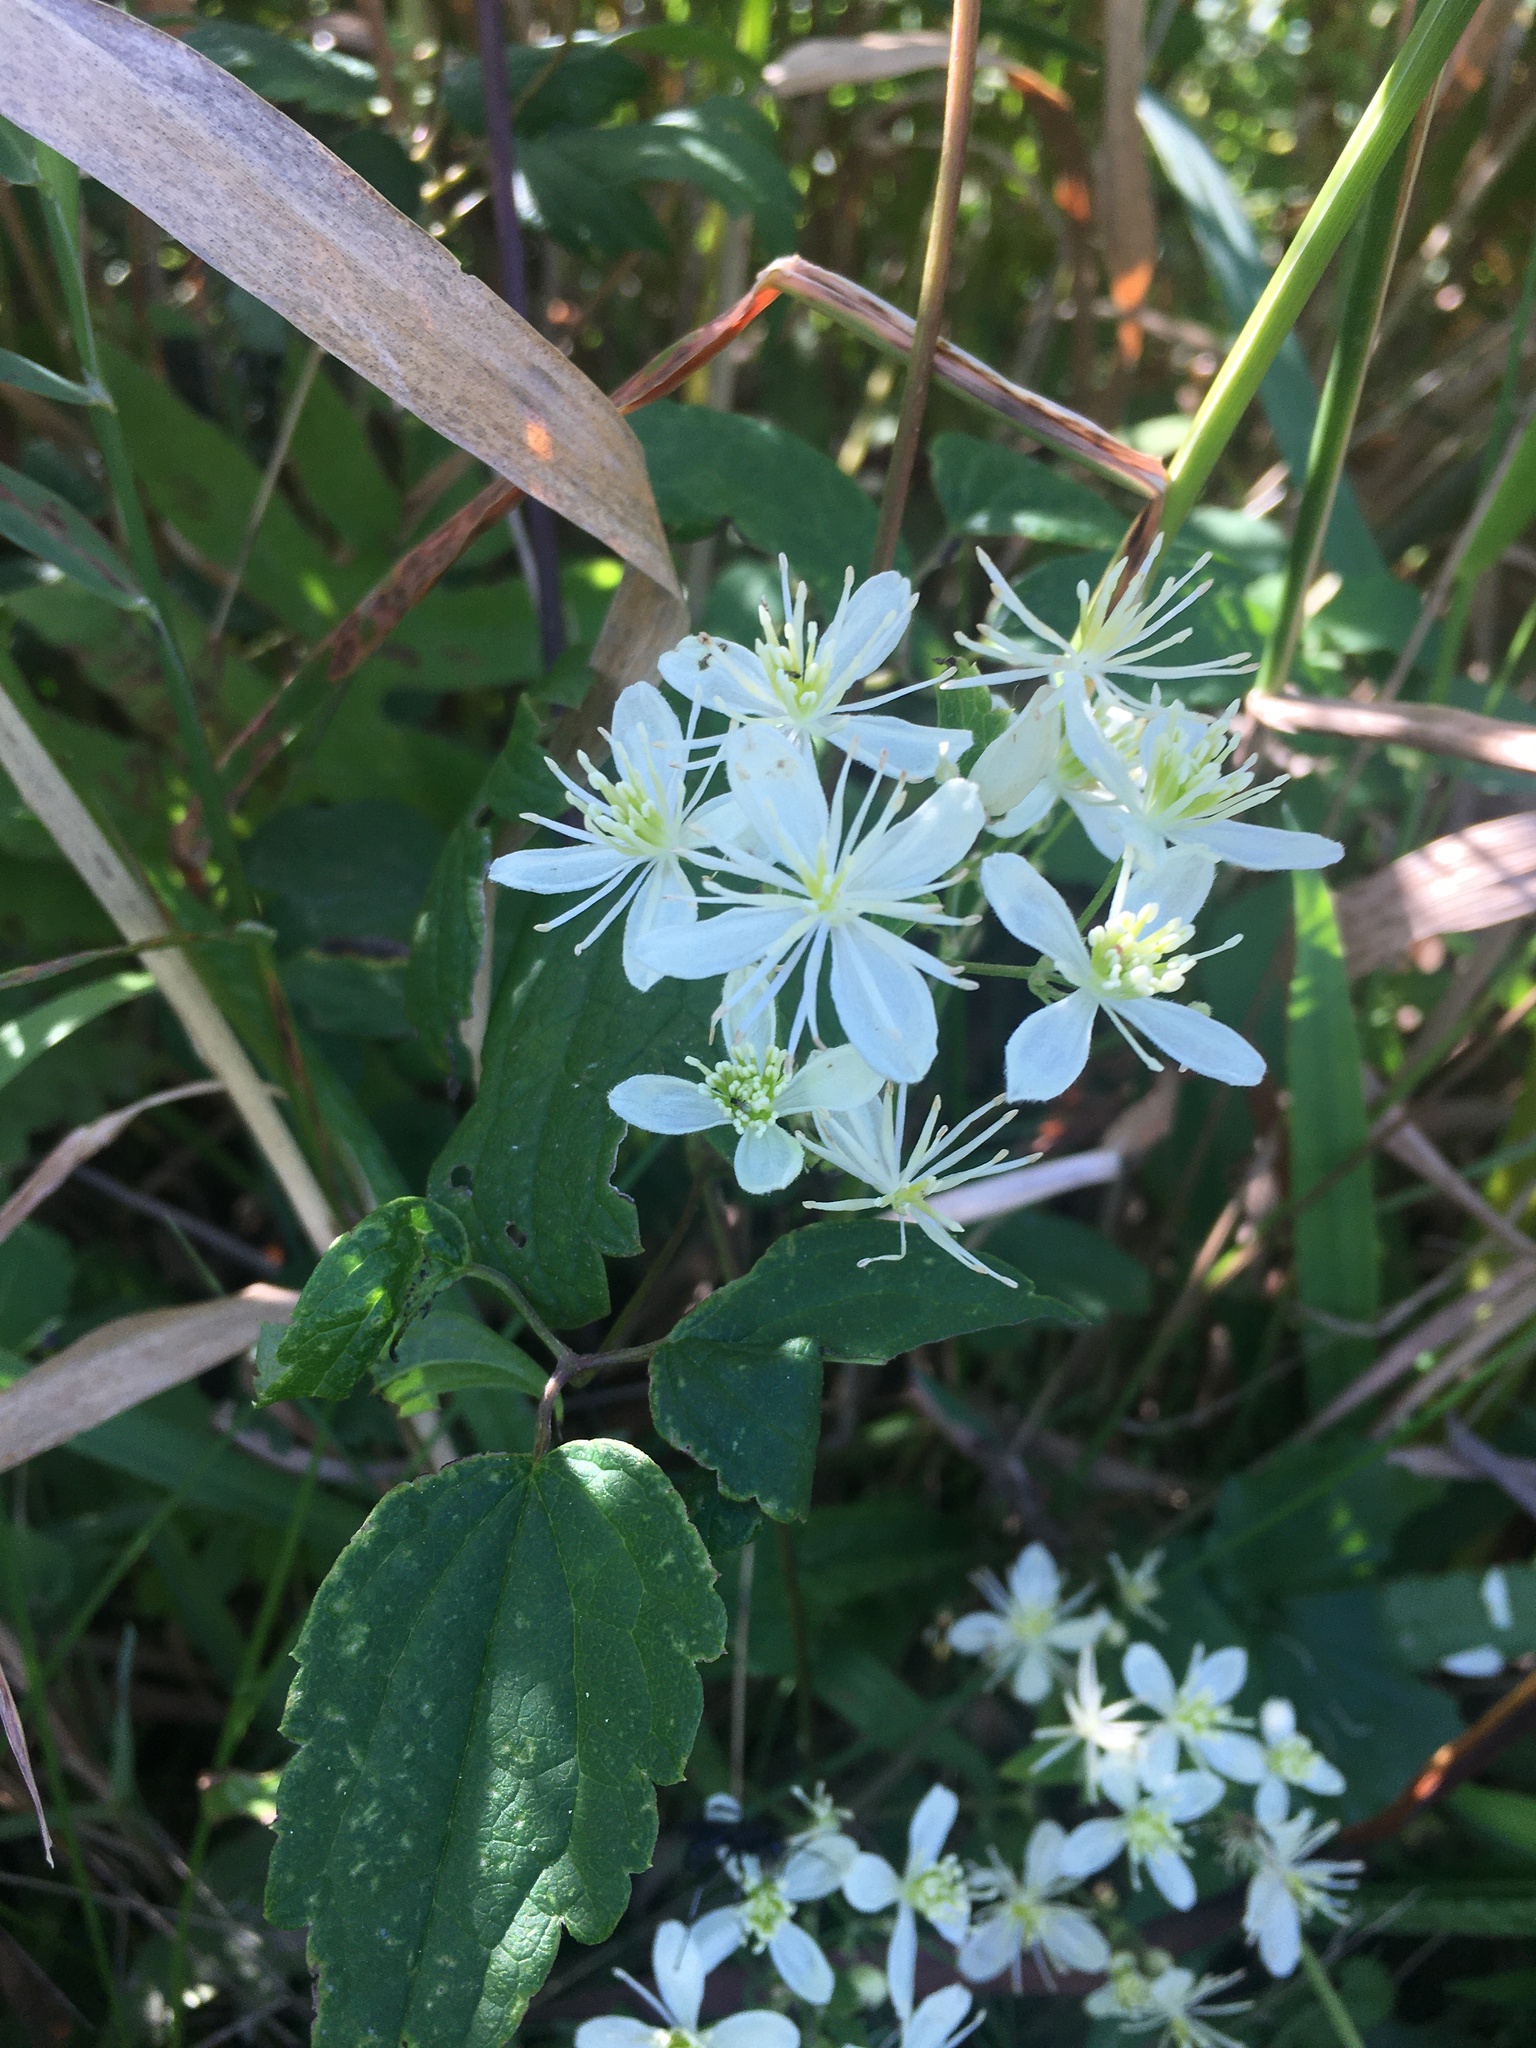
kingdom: Plantae
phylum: Tracheophyta
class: Magnoliopsida
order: Ranunculales
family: Ranunculaceae
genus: Clematis
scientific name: Clematis virginiana
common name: Virgin's-bower
